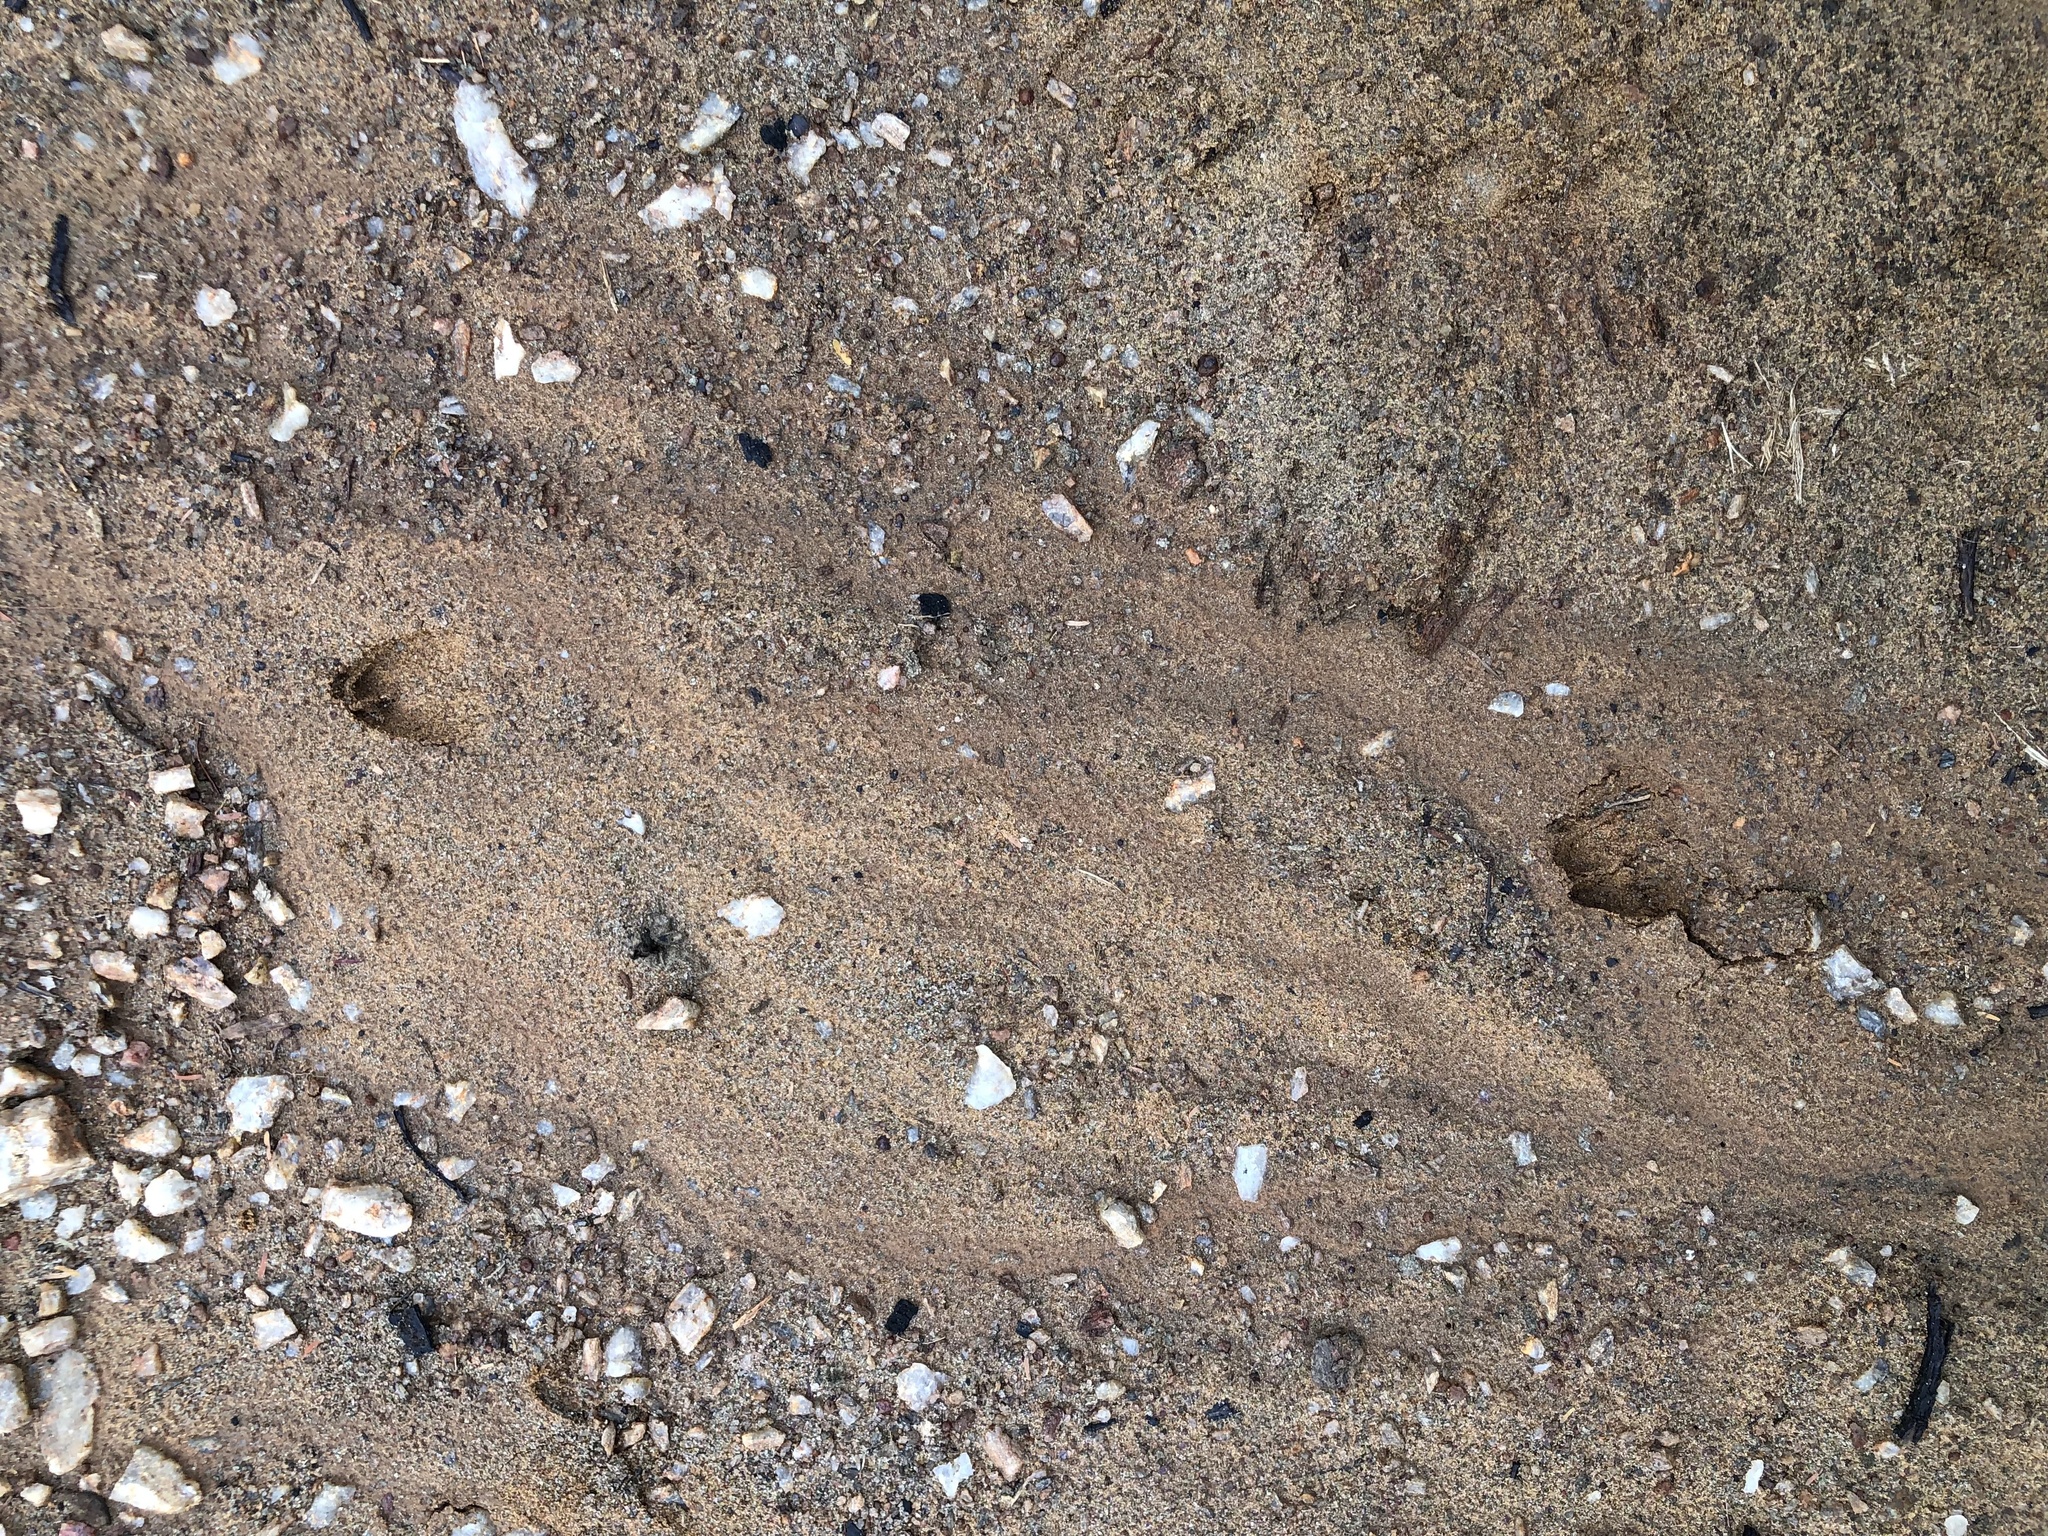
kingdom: Animalia
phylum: Chordata
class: Mammalia
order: Artiodactyla
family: Cervidae
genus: Mazama
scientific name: Mazama gouazoubira
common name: Gray brocket
